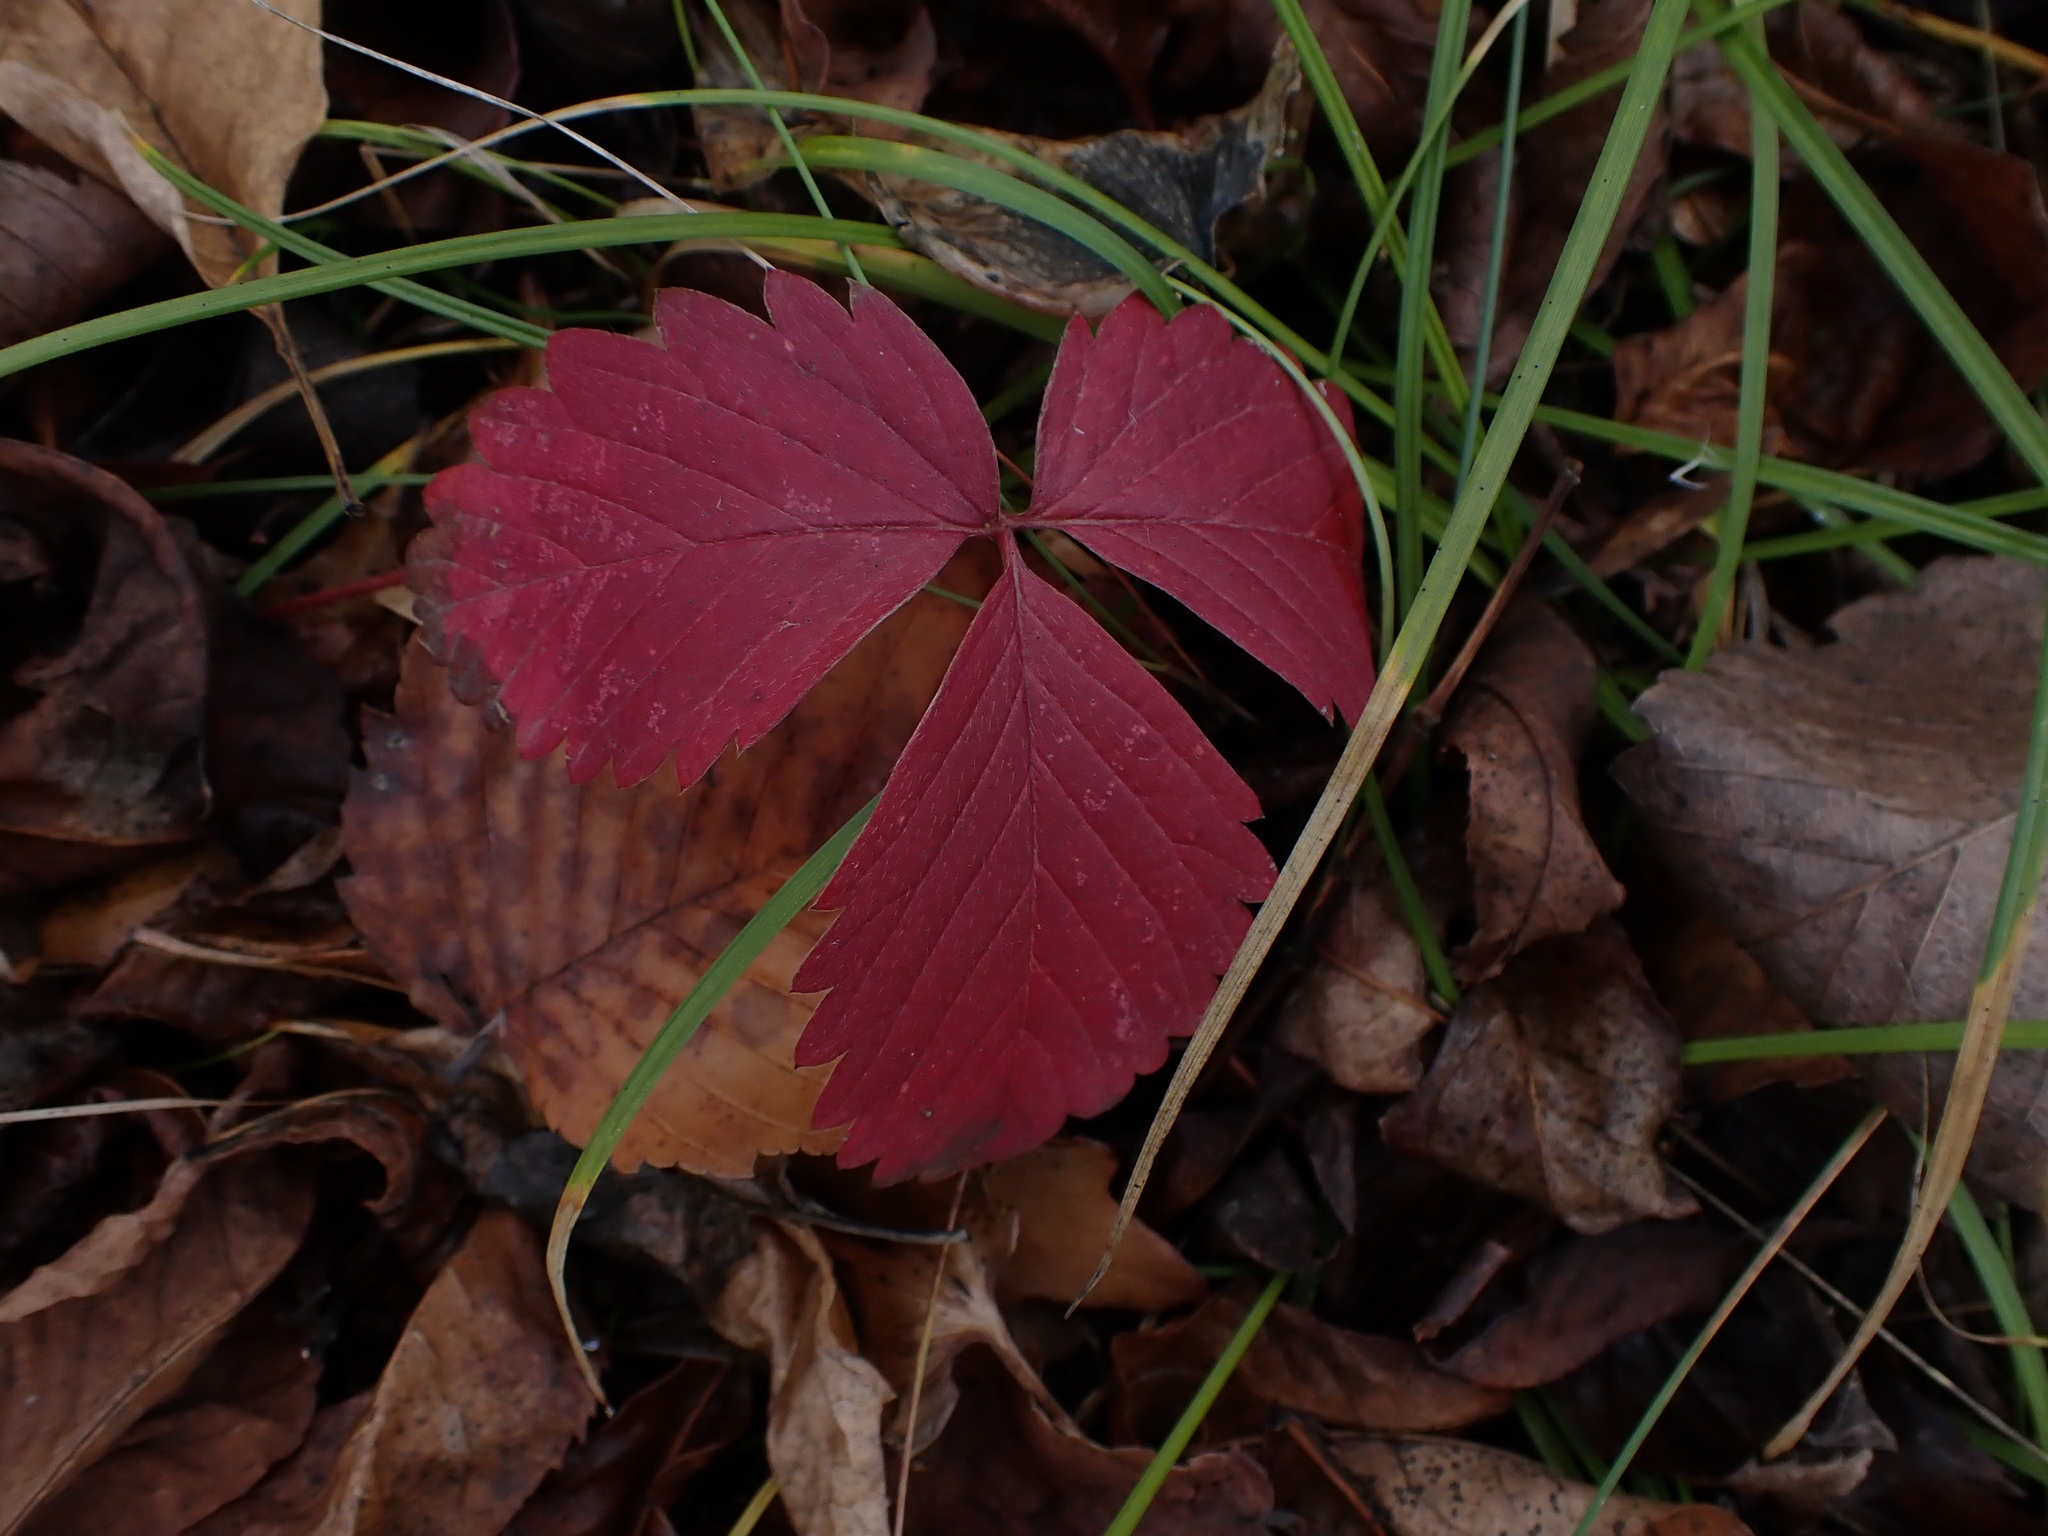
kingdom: Plantae
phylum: Tracheophyta
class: Magnoliopsida
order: Rosales
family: Rosaceae
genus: Rubus
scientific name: Rubus pubescens
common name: Dwarf raspberry
